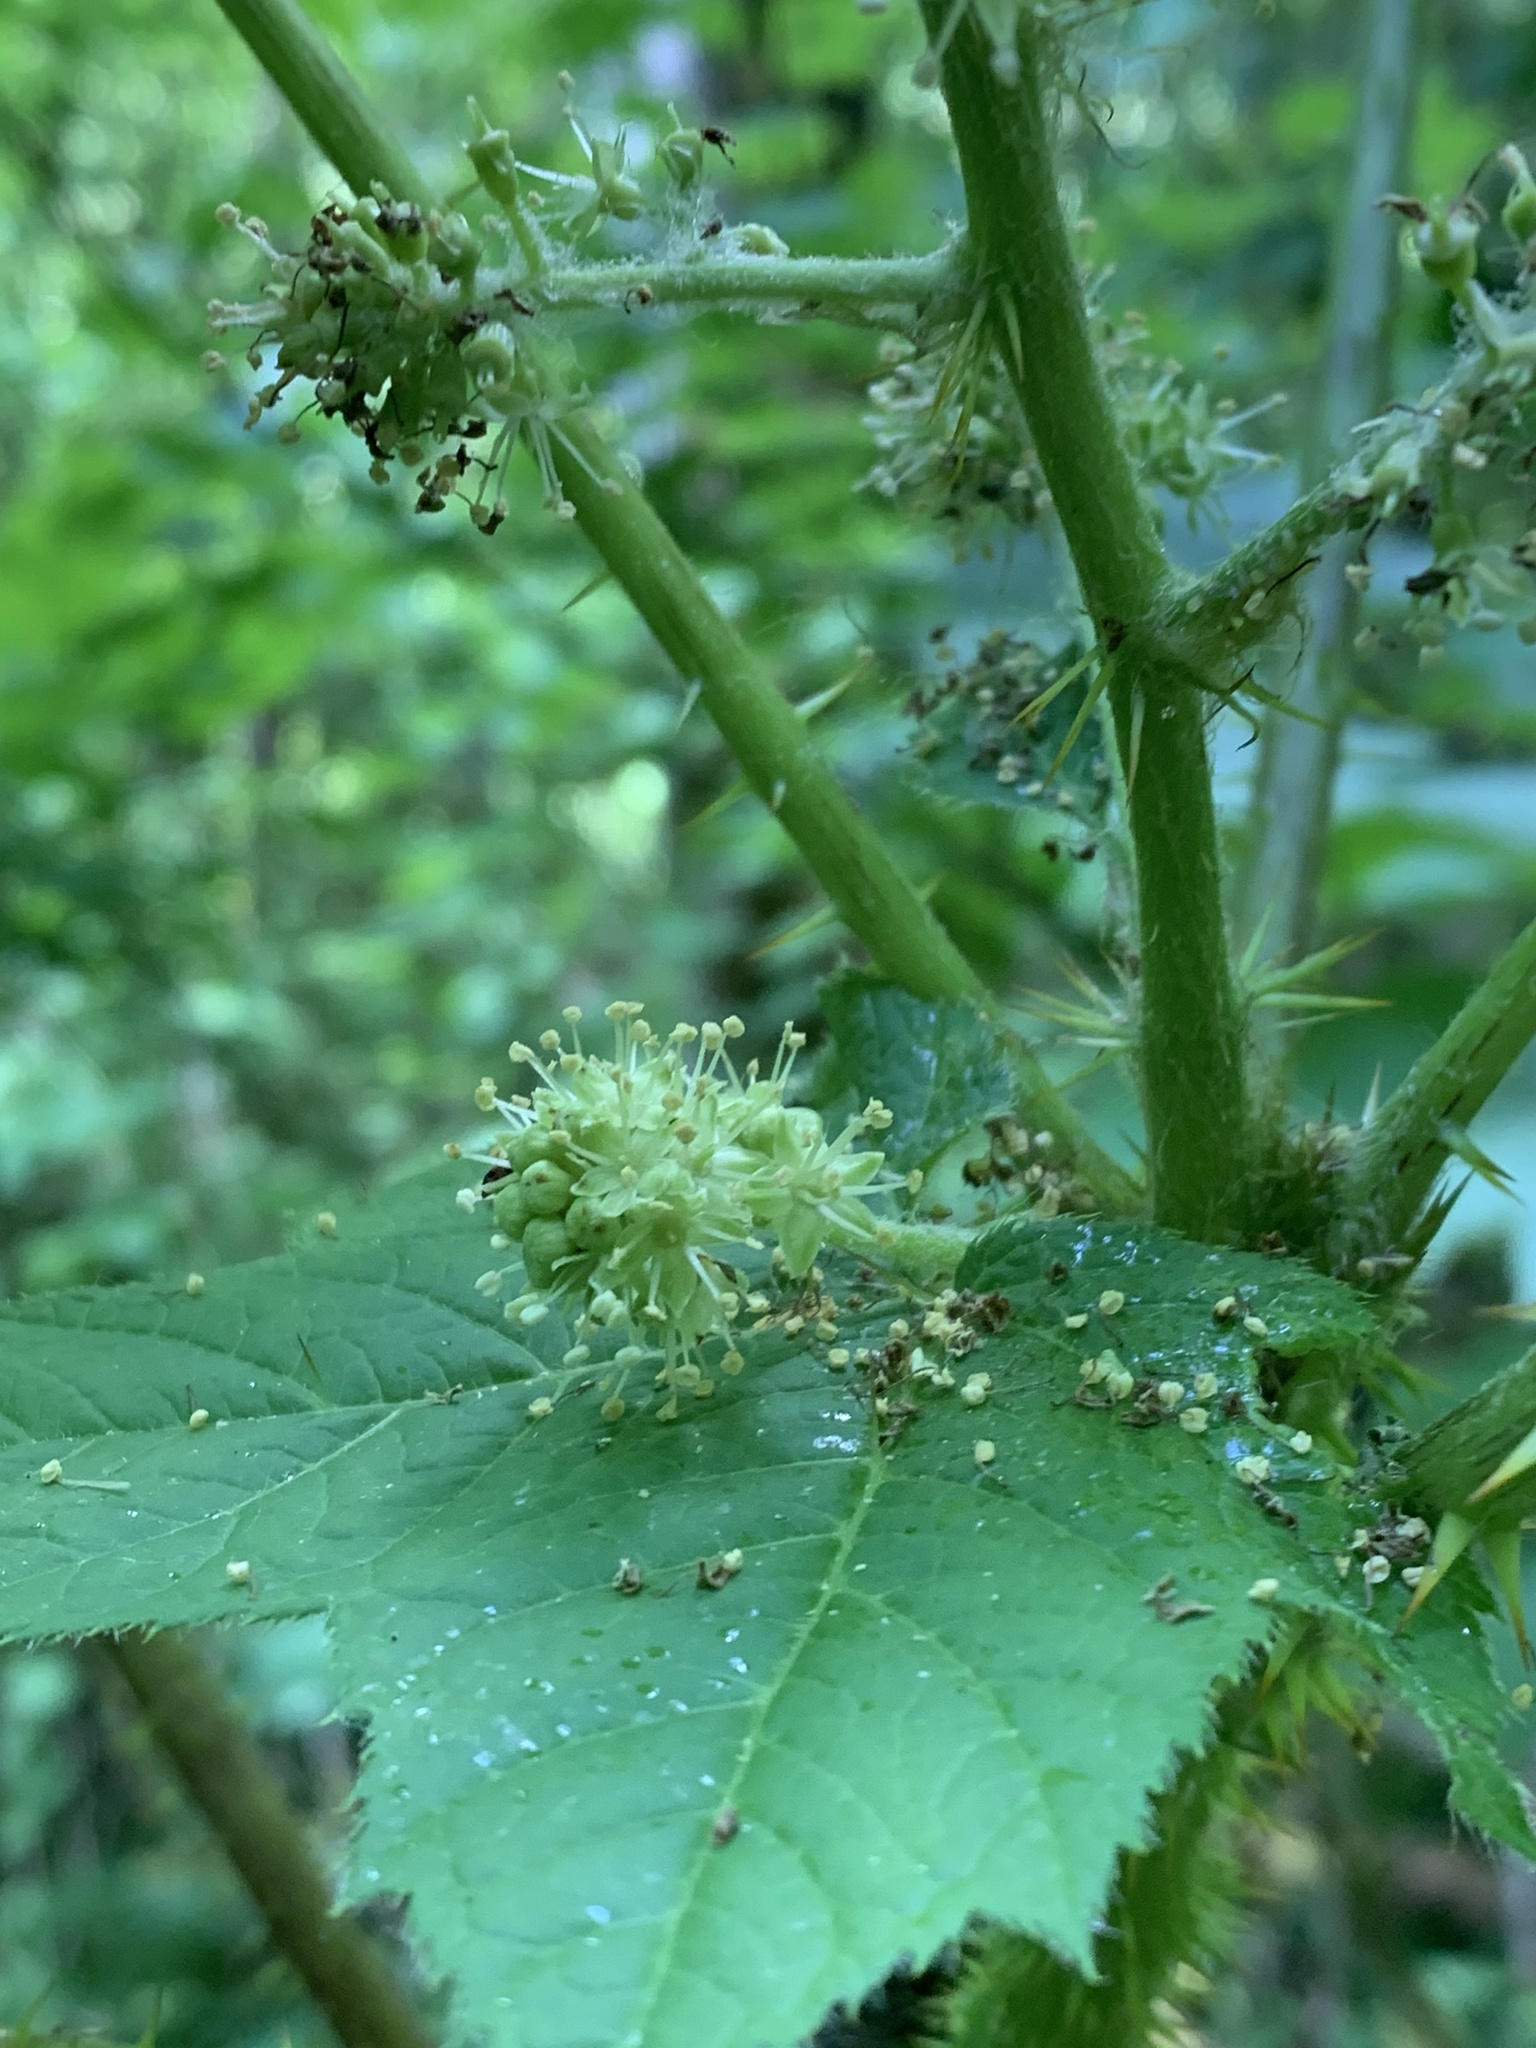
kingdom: Plantae
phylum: Tracheophyta
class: Magnoliopsida
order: Apiales
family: Araliaceae
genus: Oplopanax
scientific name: Oplopanax horridus
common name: Devil's walking-stick
